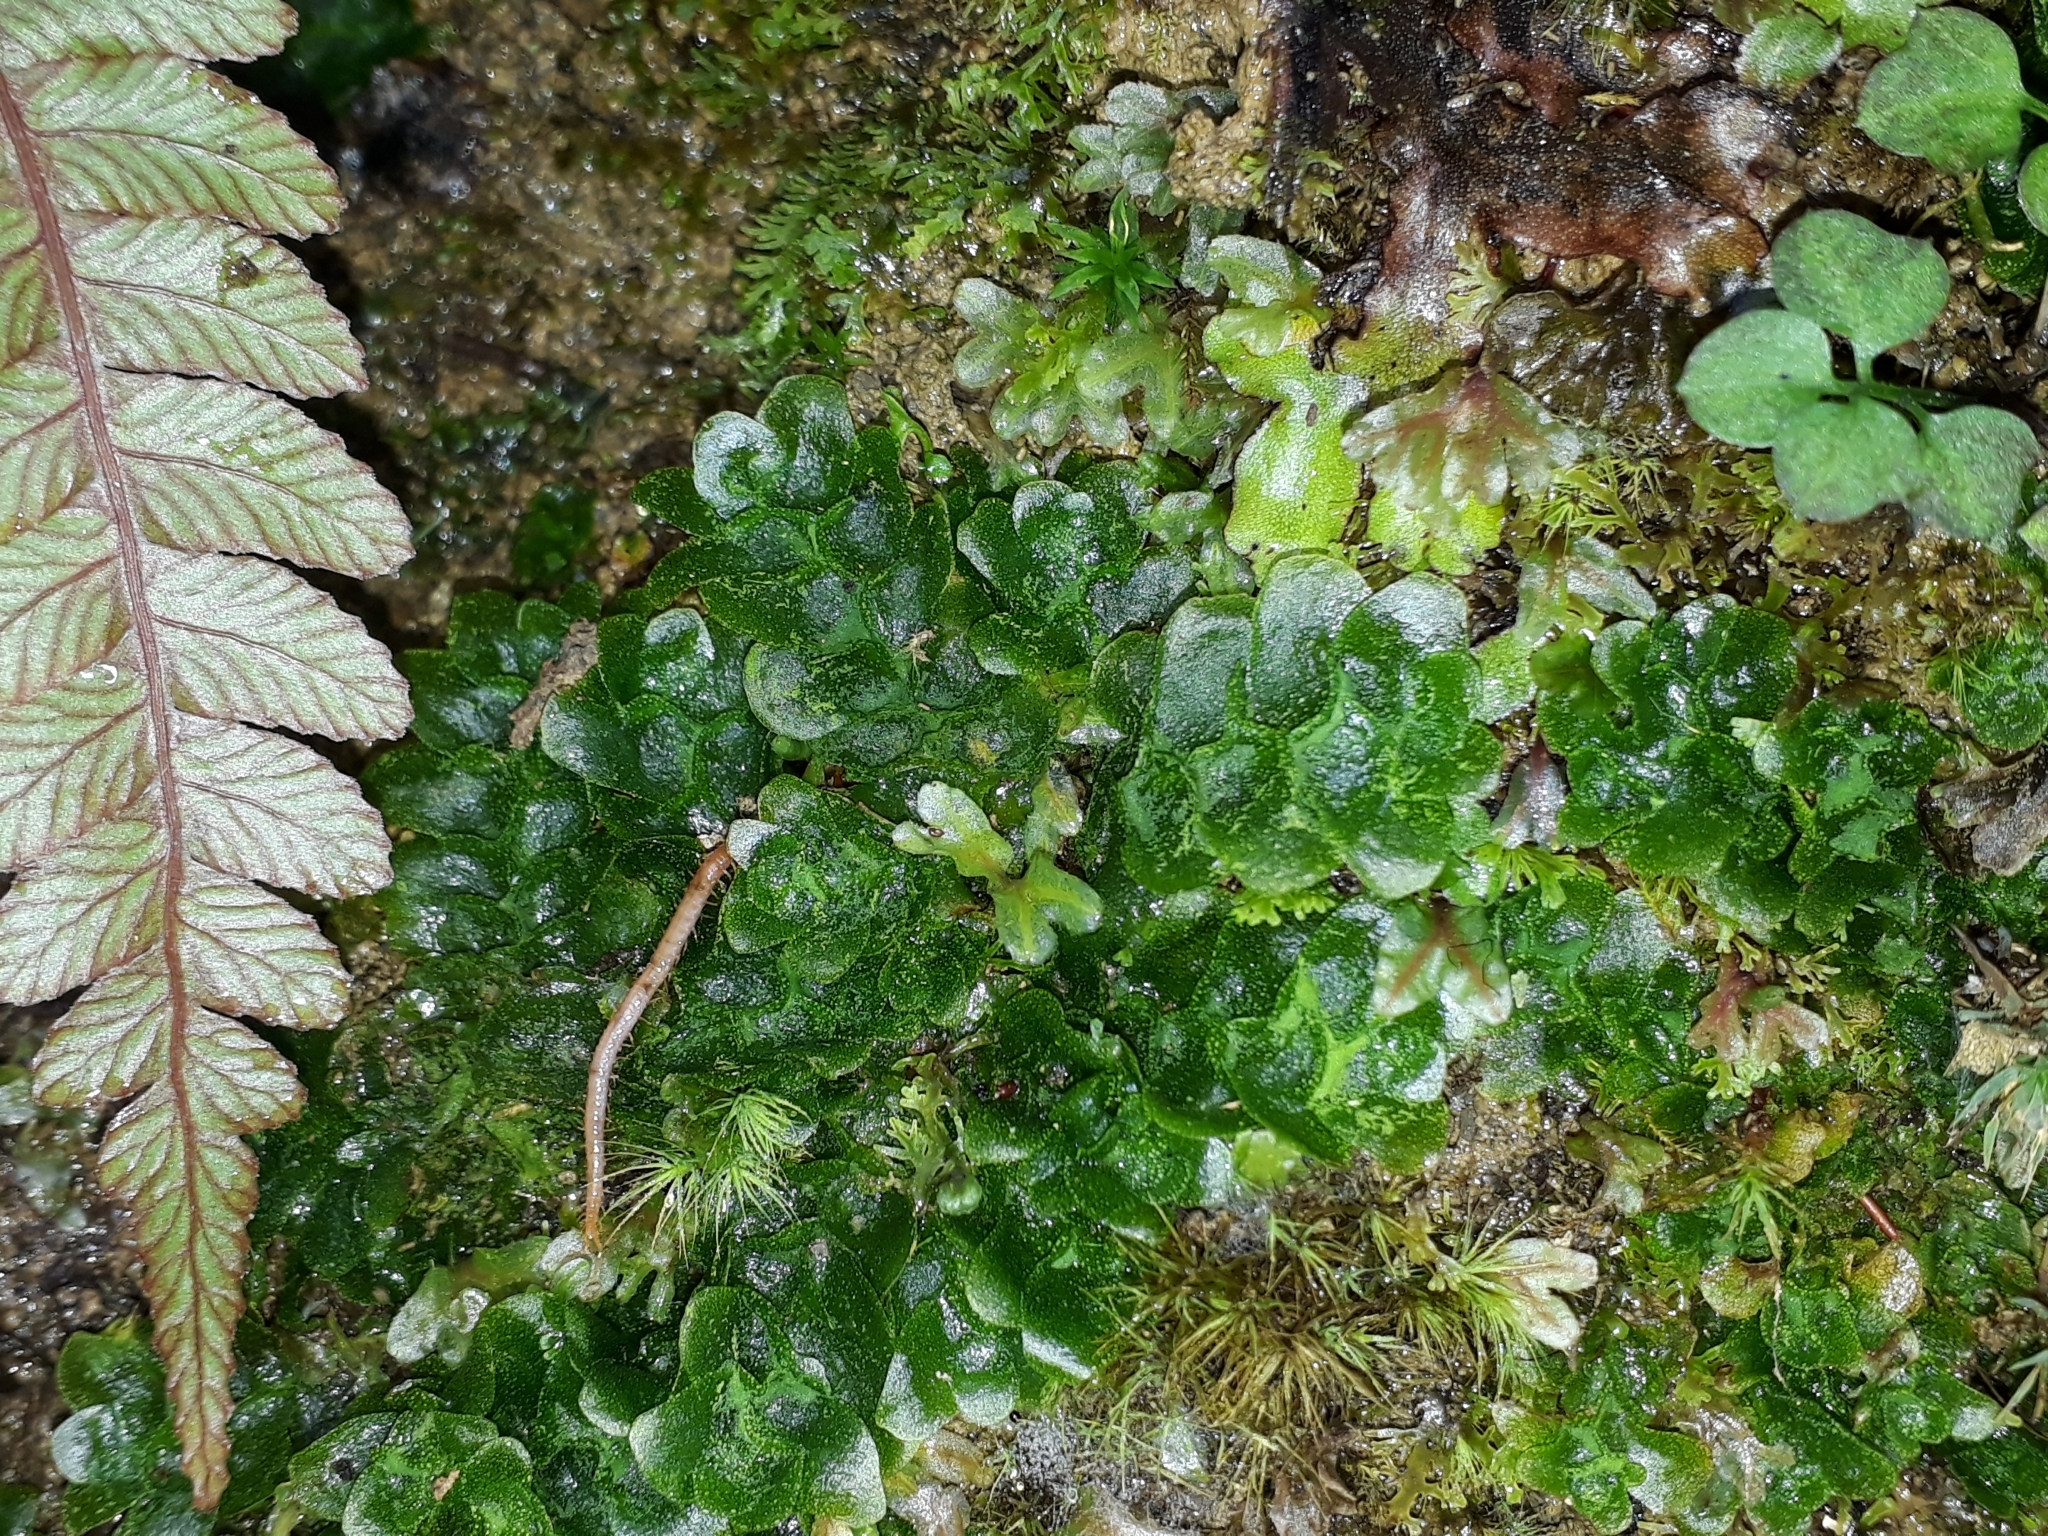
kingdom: Plantae
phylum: Marchantiophyta
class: Haplomitriopsida
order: Treubiales
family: Treubiaceae
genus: Treubia
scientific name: Treubia lacunosa
